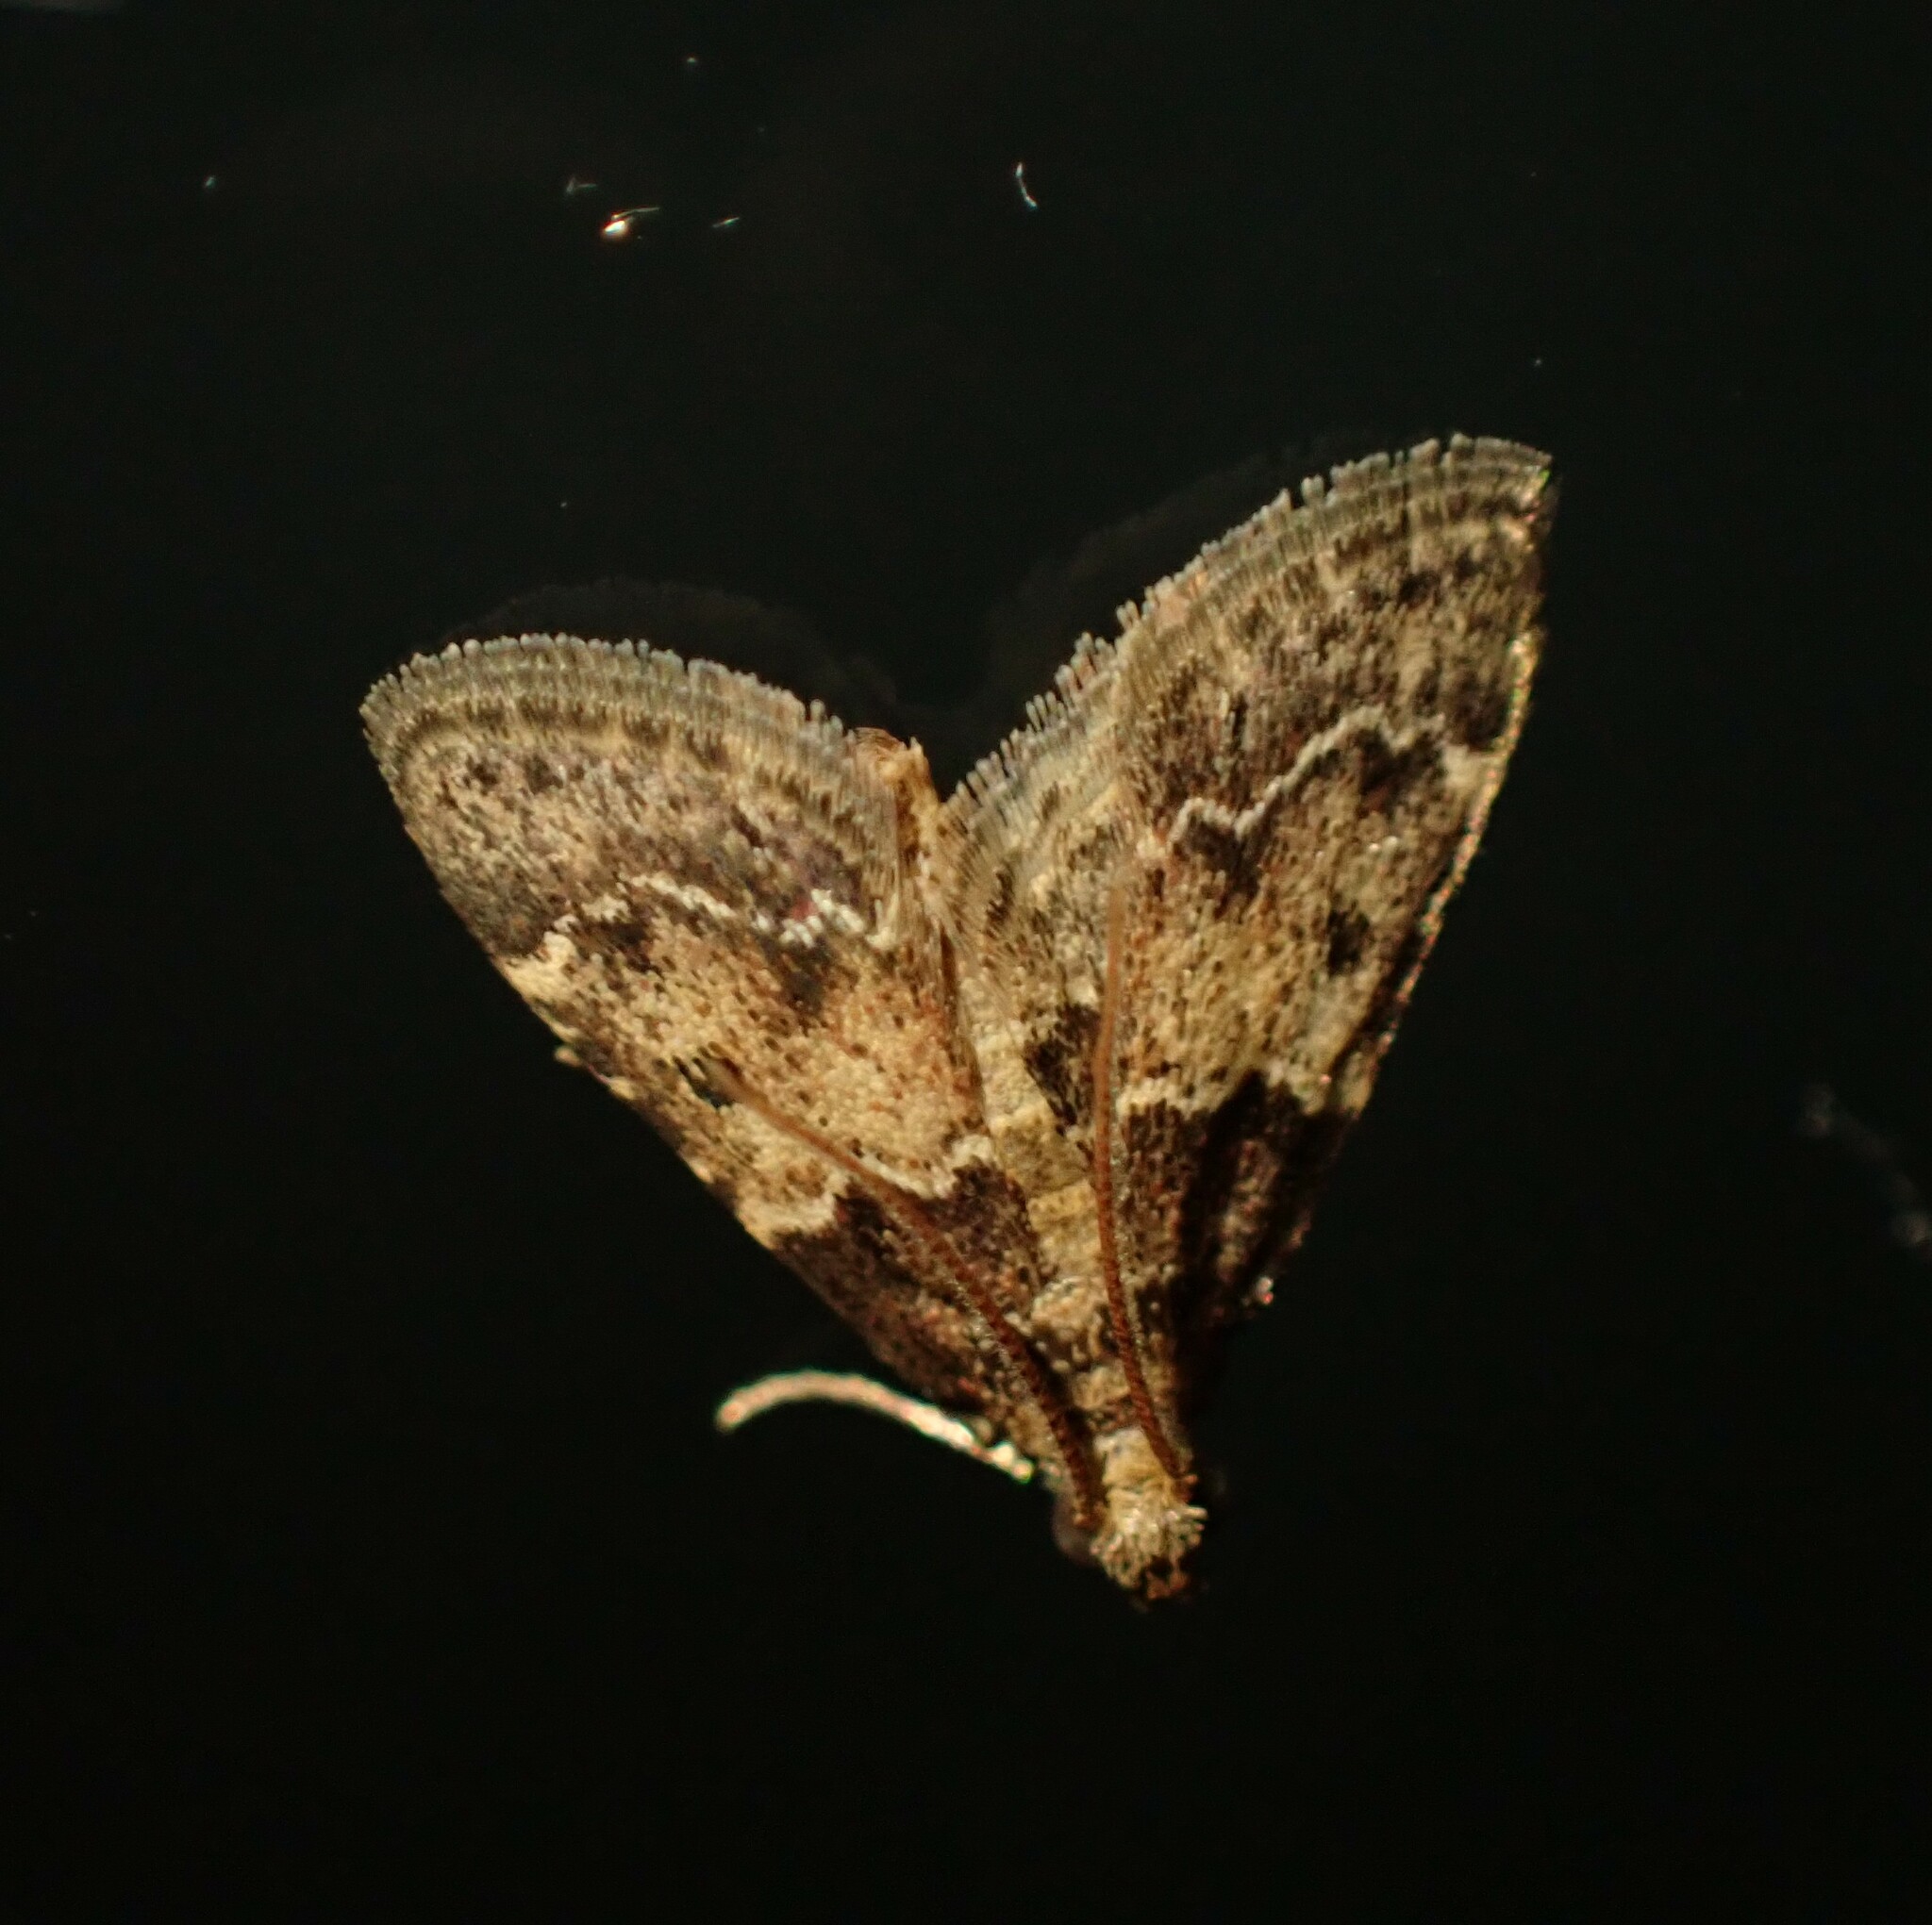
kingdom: Animalia
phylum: Arthropoda
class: Insecta
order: Lepidoptera
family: Pyralidae
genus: Pyralis
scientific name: Pyralis manihotalis
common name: Moth
